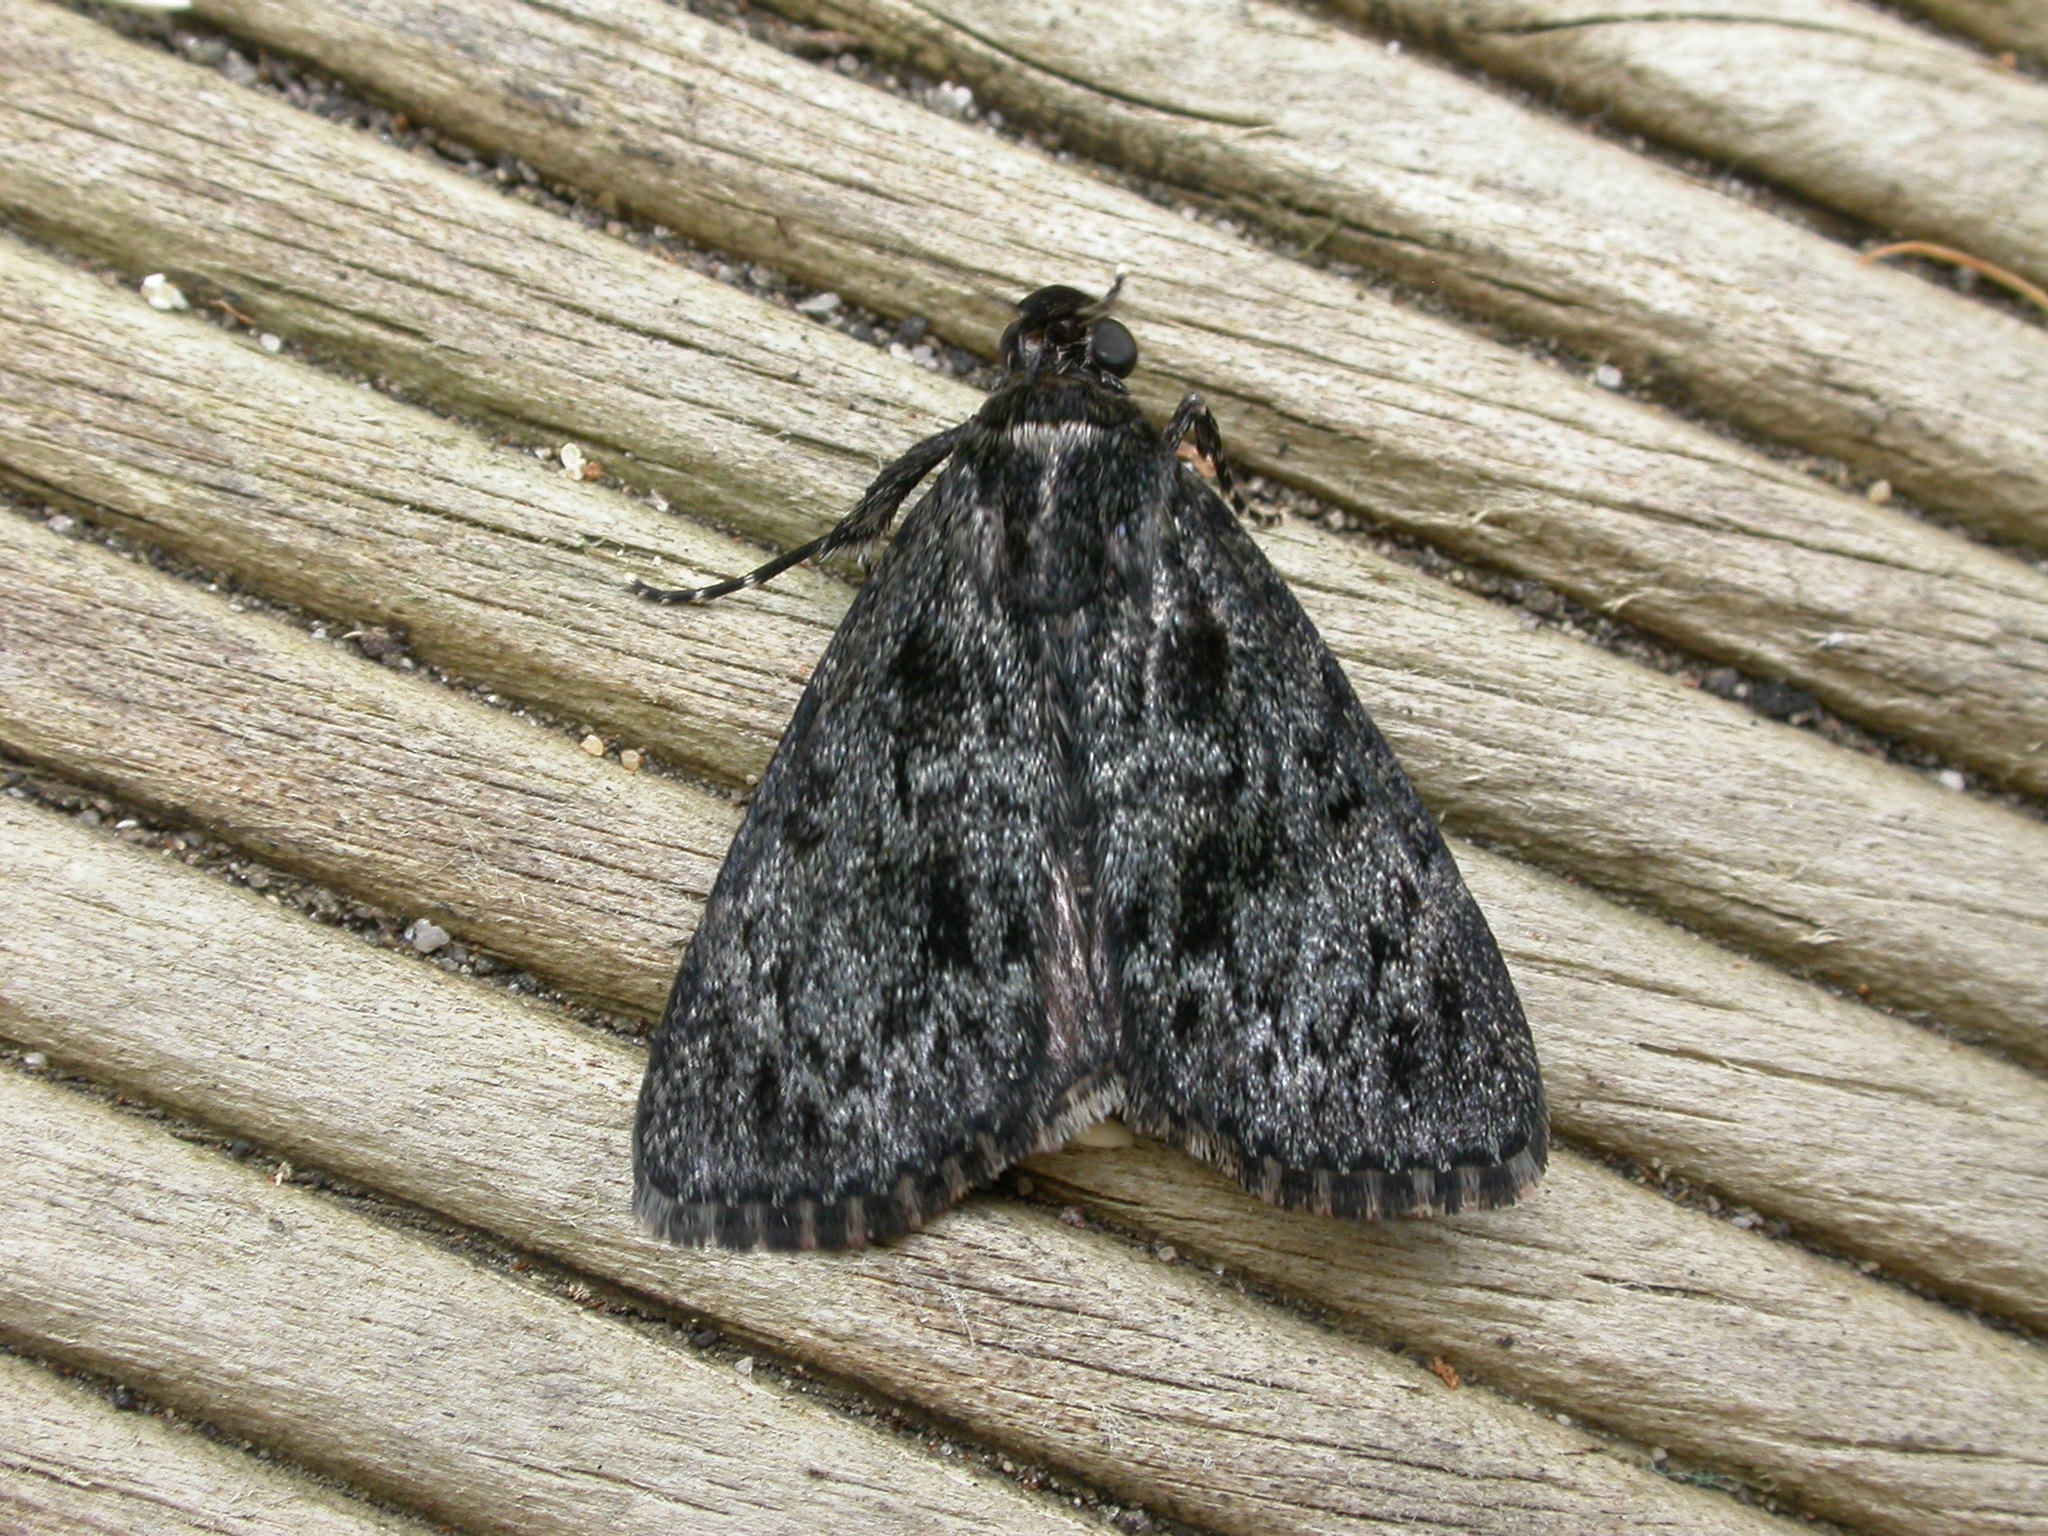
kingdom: Animalia
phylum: Arthropoda
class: Insecta
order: Lepidoptera
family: Pyralidae
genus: Salma
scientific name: Salma ebenina
